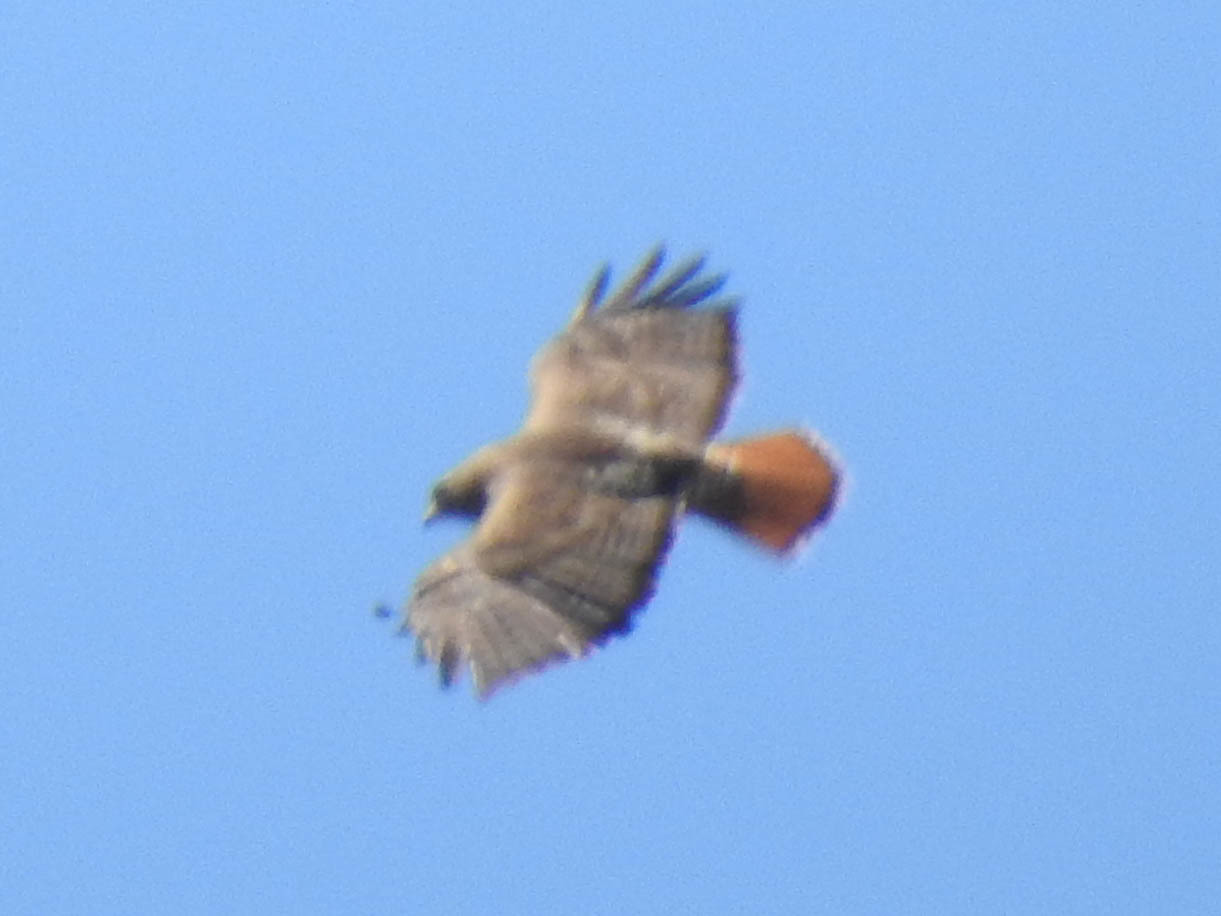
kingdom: Animalia
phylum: Chordata
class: Aves
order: Accipitriformes
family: Accipitridae
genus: Buteo
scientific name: Buteo jamaicensis
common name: Red-tailed hawk
